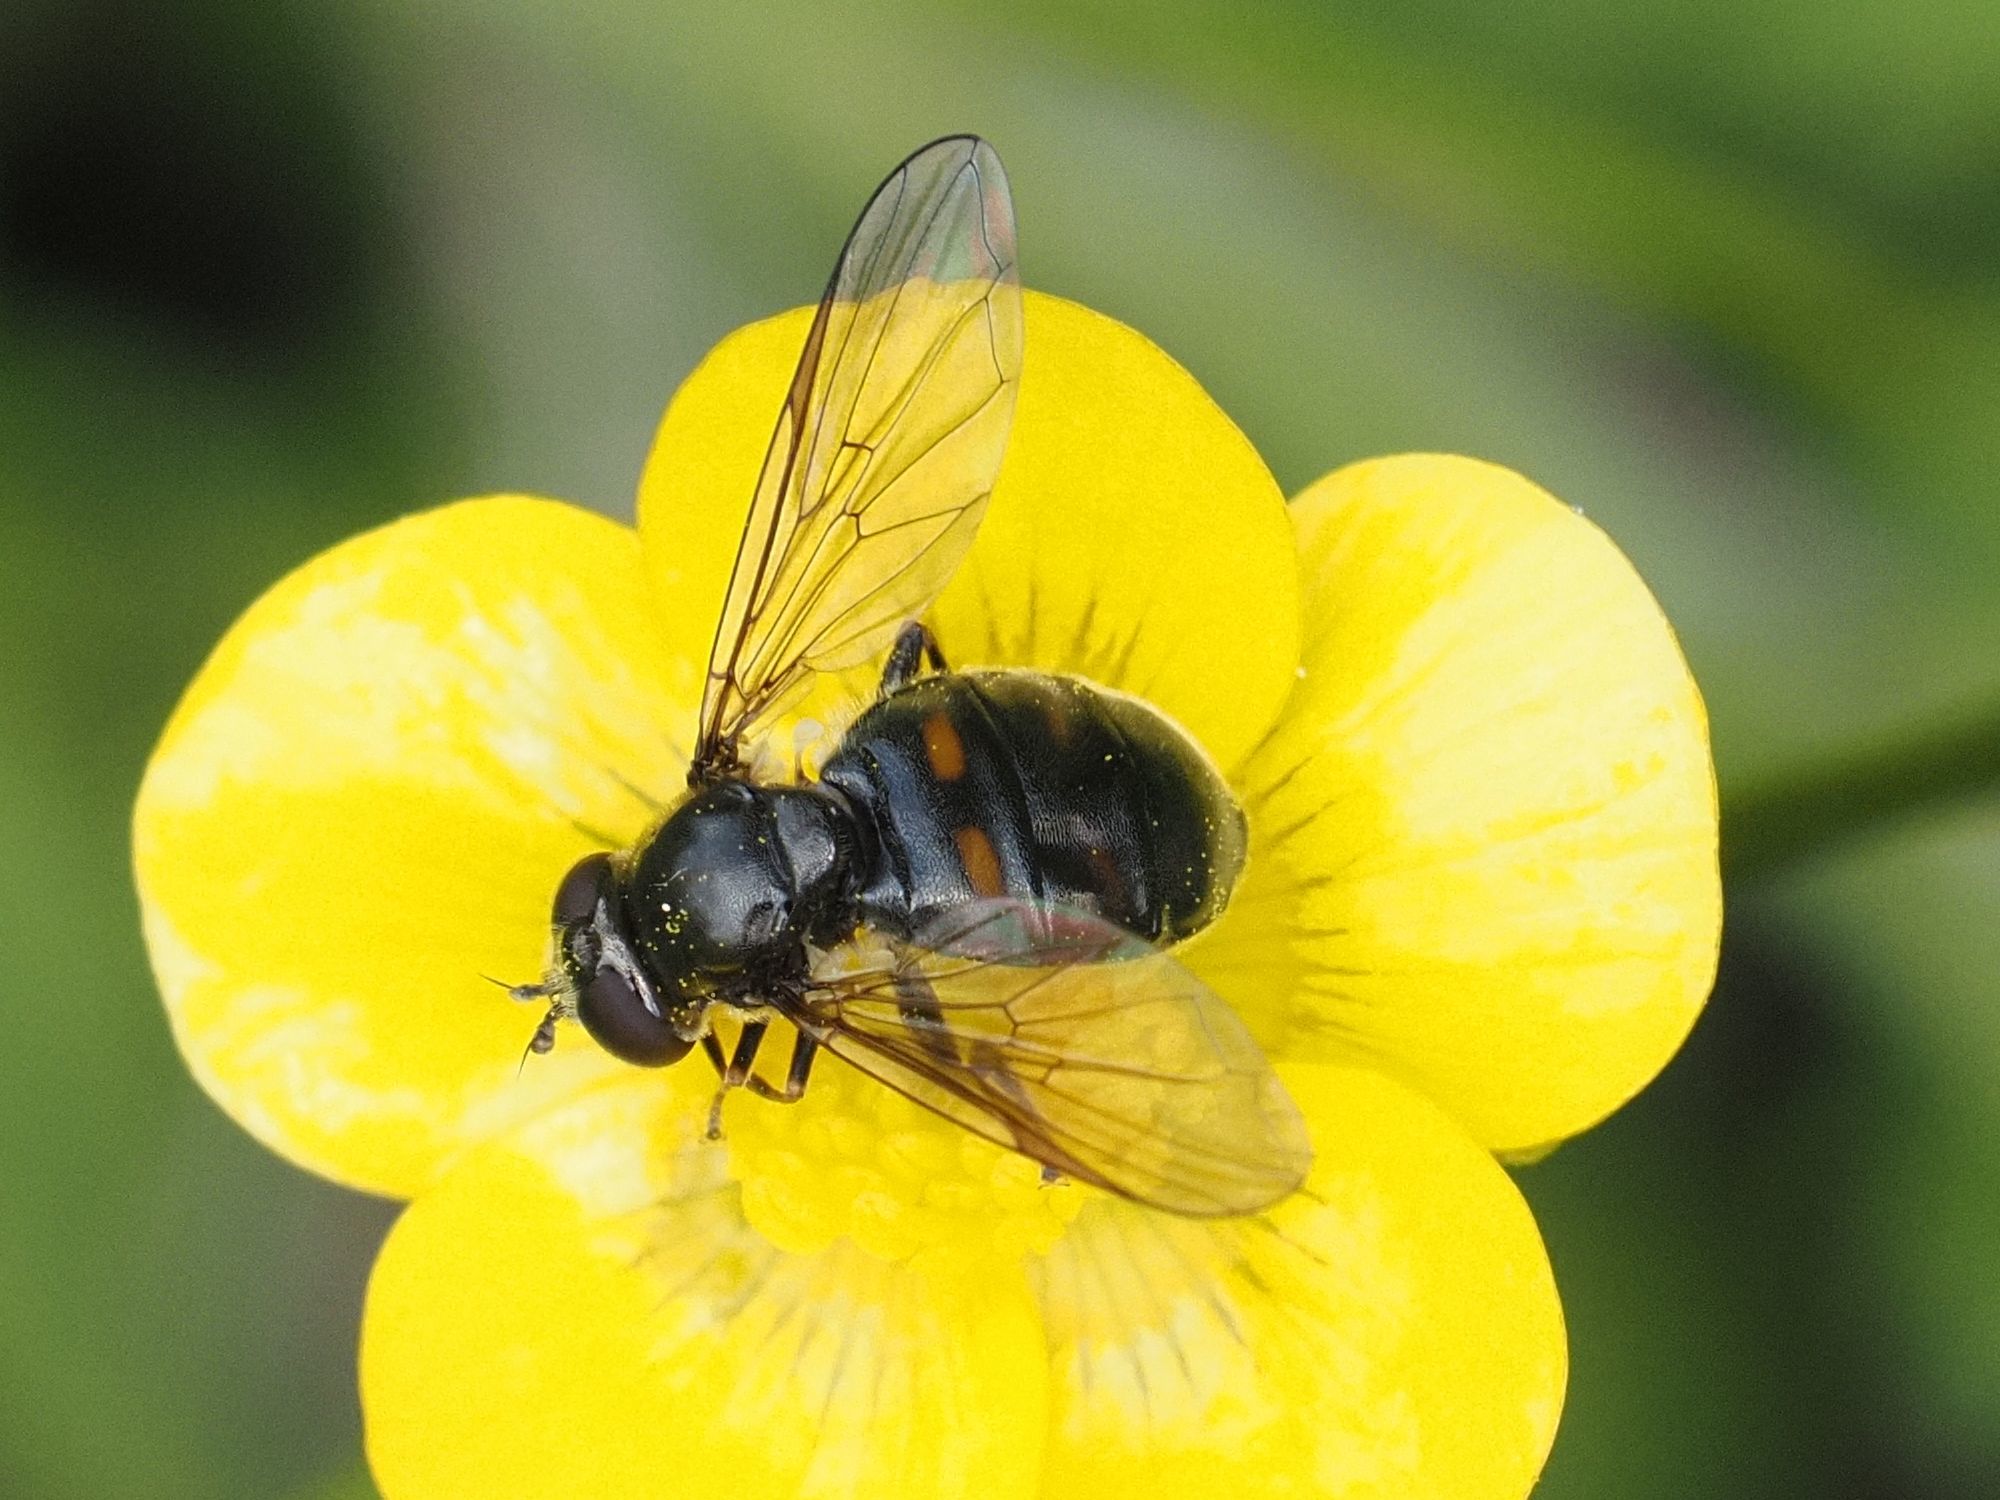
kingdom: Animalia
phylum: Arthropoda
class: Insecta
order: Diptera
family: Syrphidae
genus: Pipiza
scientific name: Pipiza quadrimaculata
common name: Four-spotted pipiza
